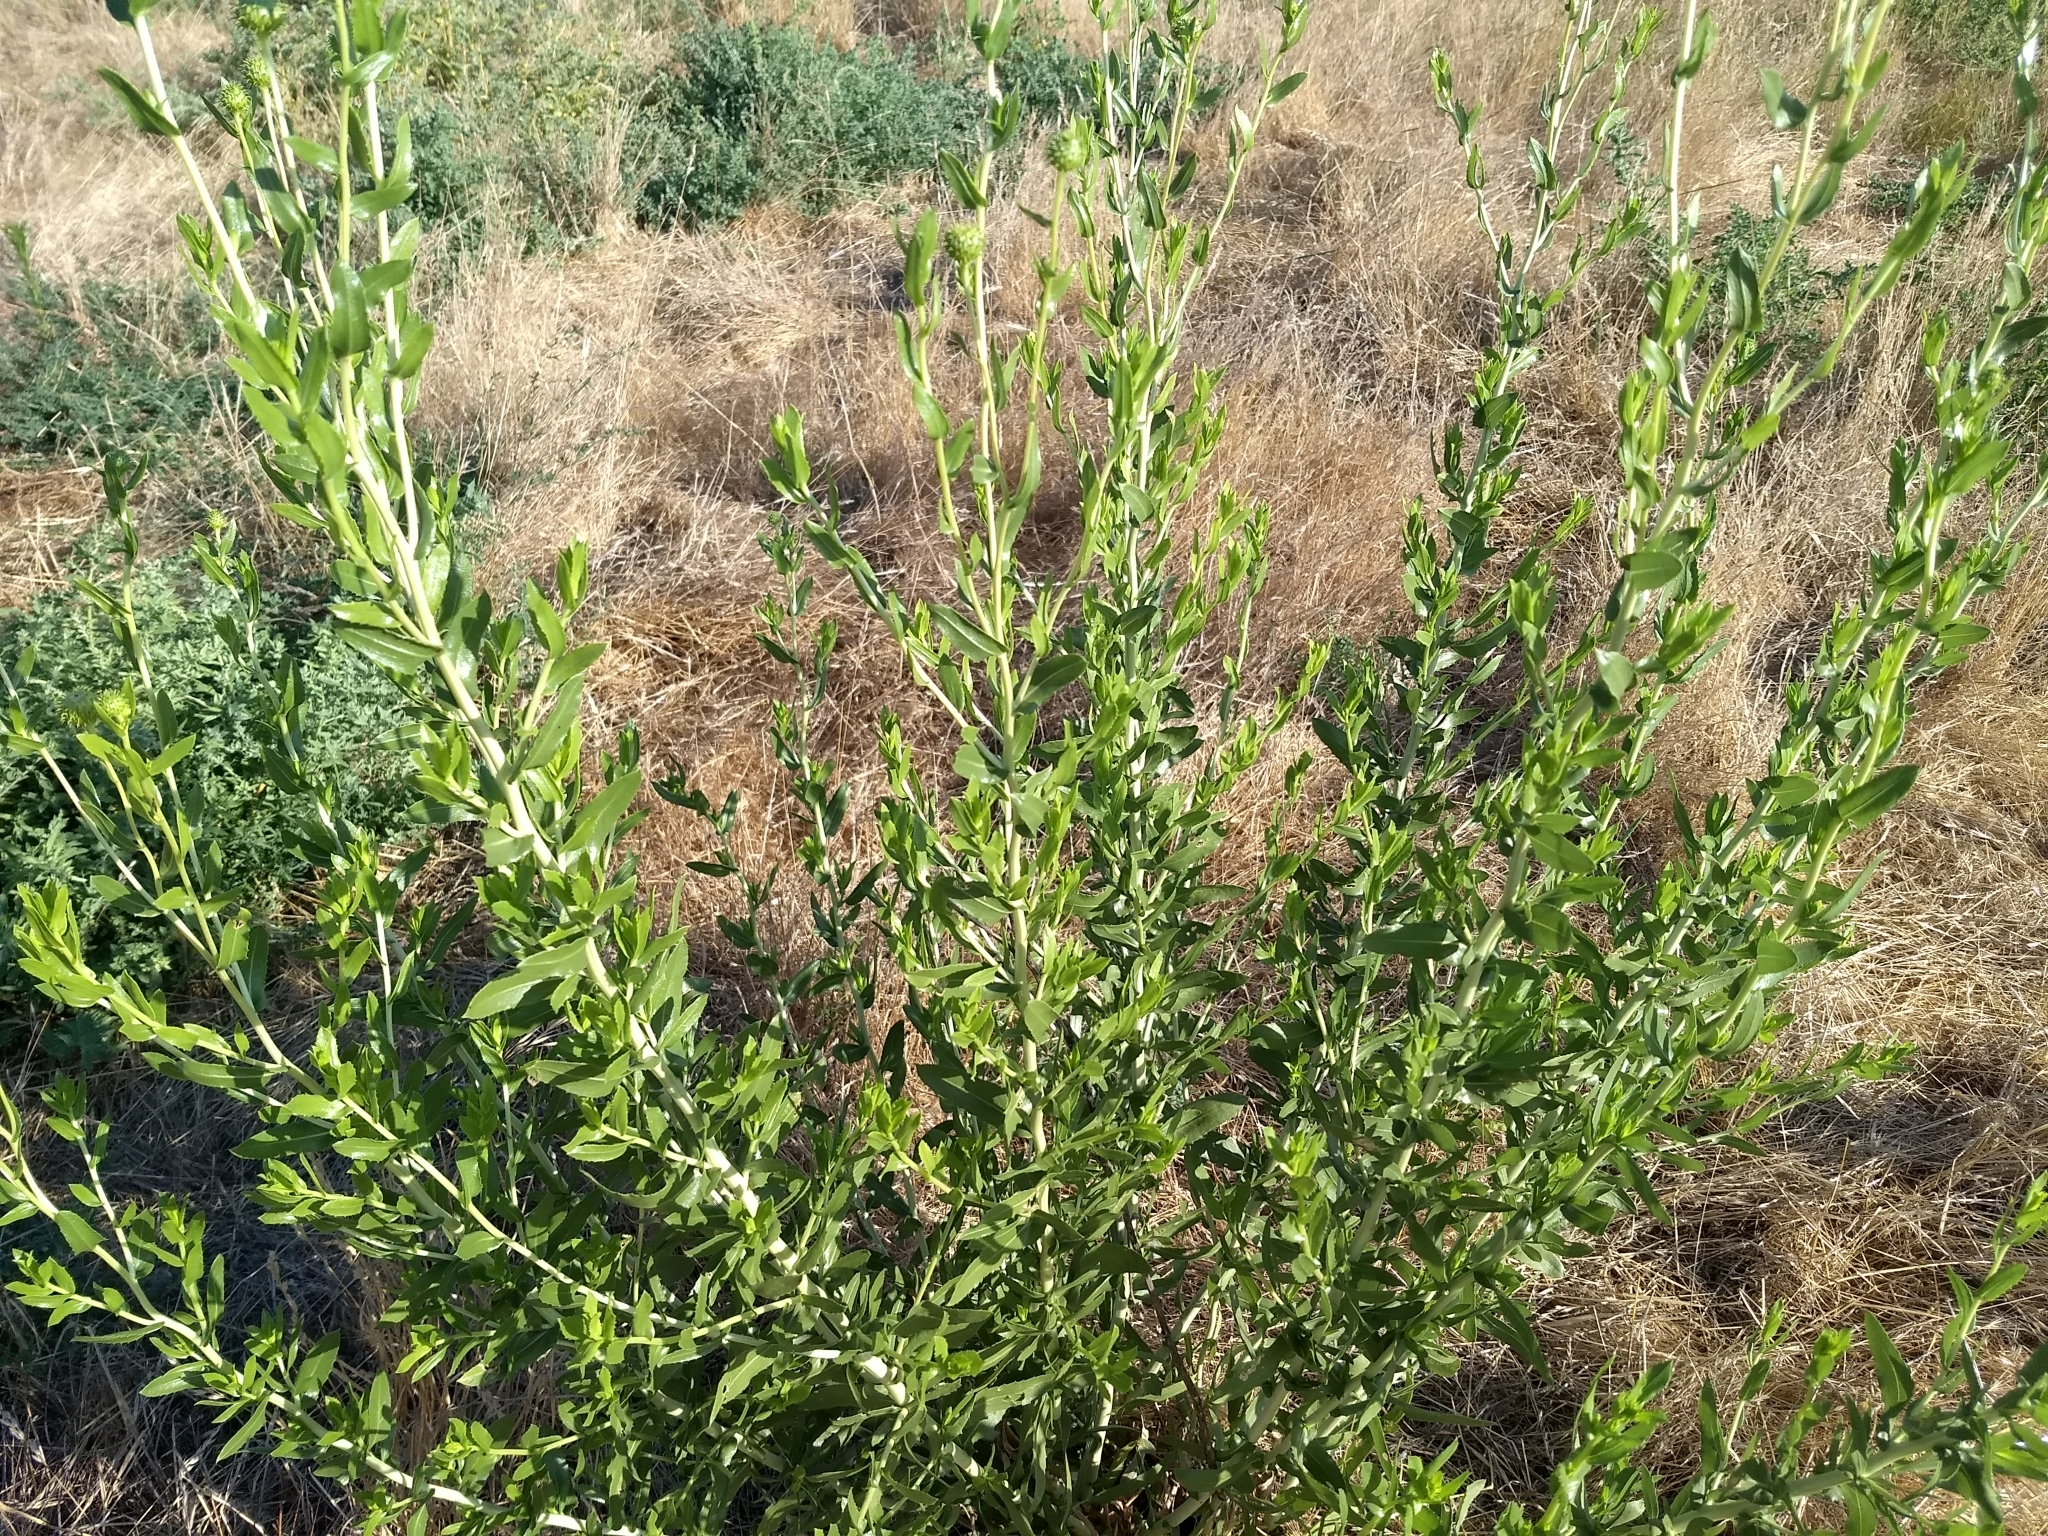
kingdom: Plantae
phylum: Tracheophyta
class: Magnoliopsida
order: Asterales
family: Asteraceae
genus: Grindelia
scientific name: Grindelia hirsutula
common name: Hairy gumweed
